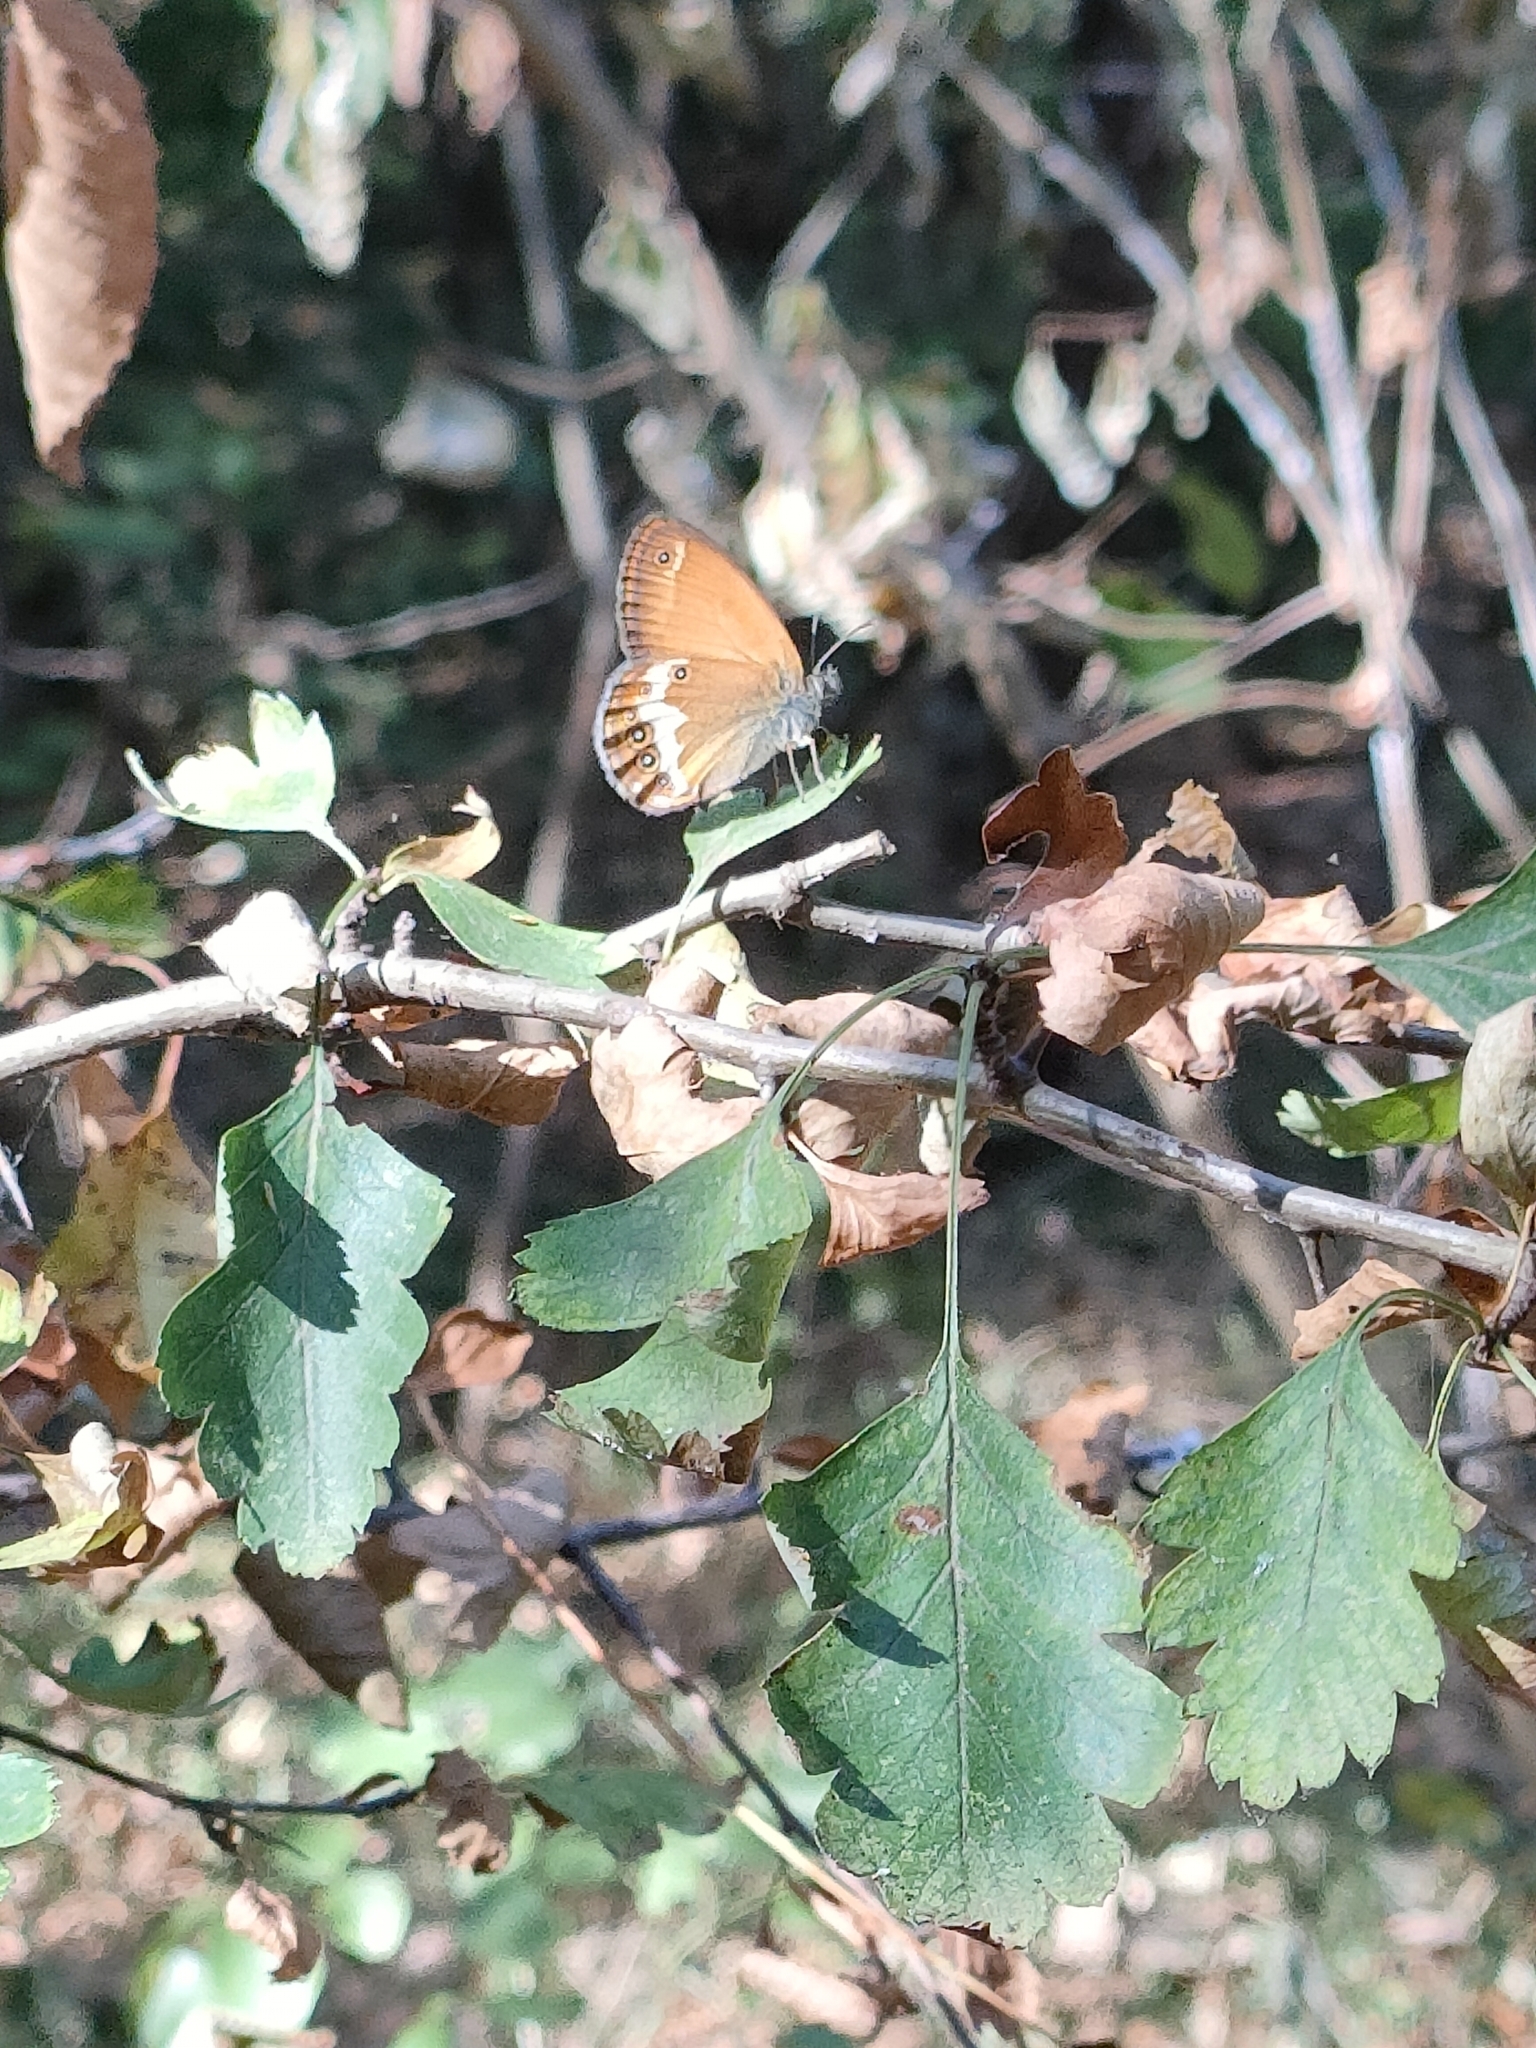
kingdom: Animalia
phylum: Arthropoda
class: Insecta
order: Lepidoptera
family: Nymphalidae
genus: Coenonympha
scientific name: Coenonympha arcania
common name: Pearly heath
